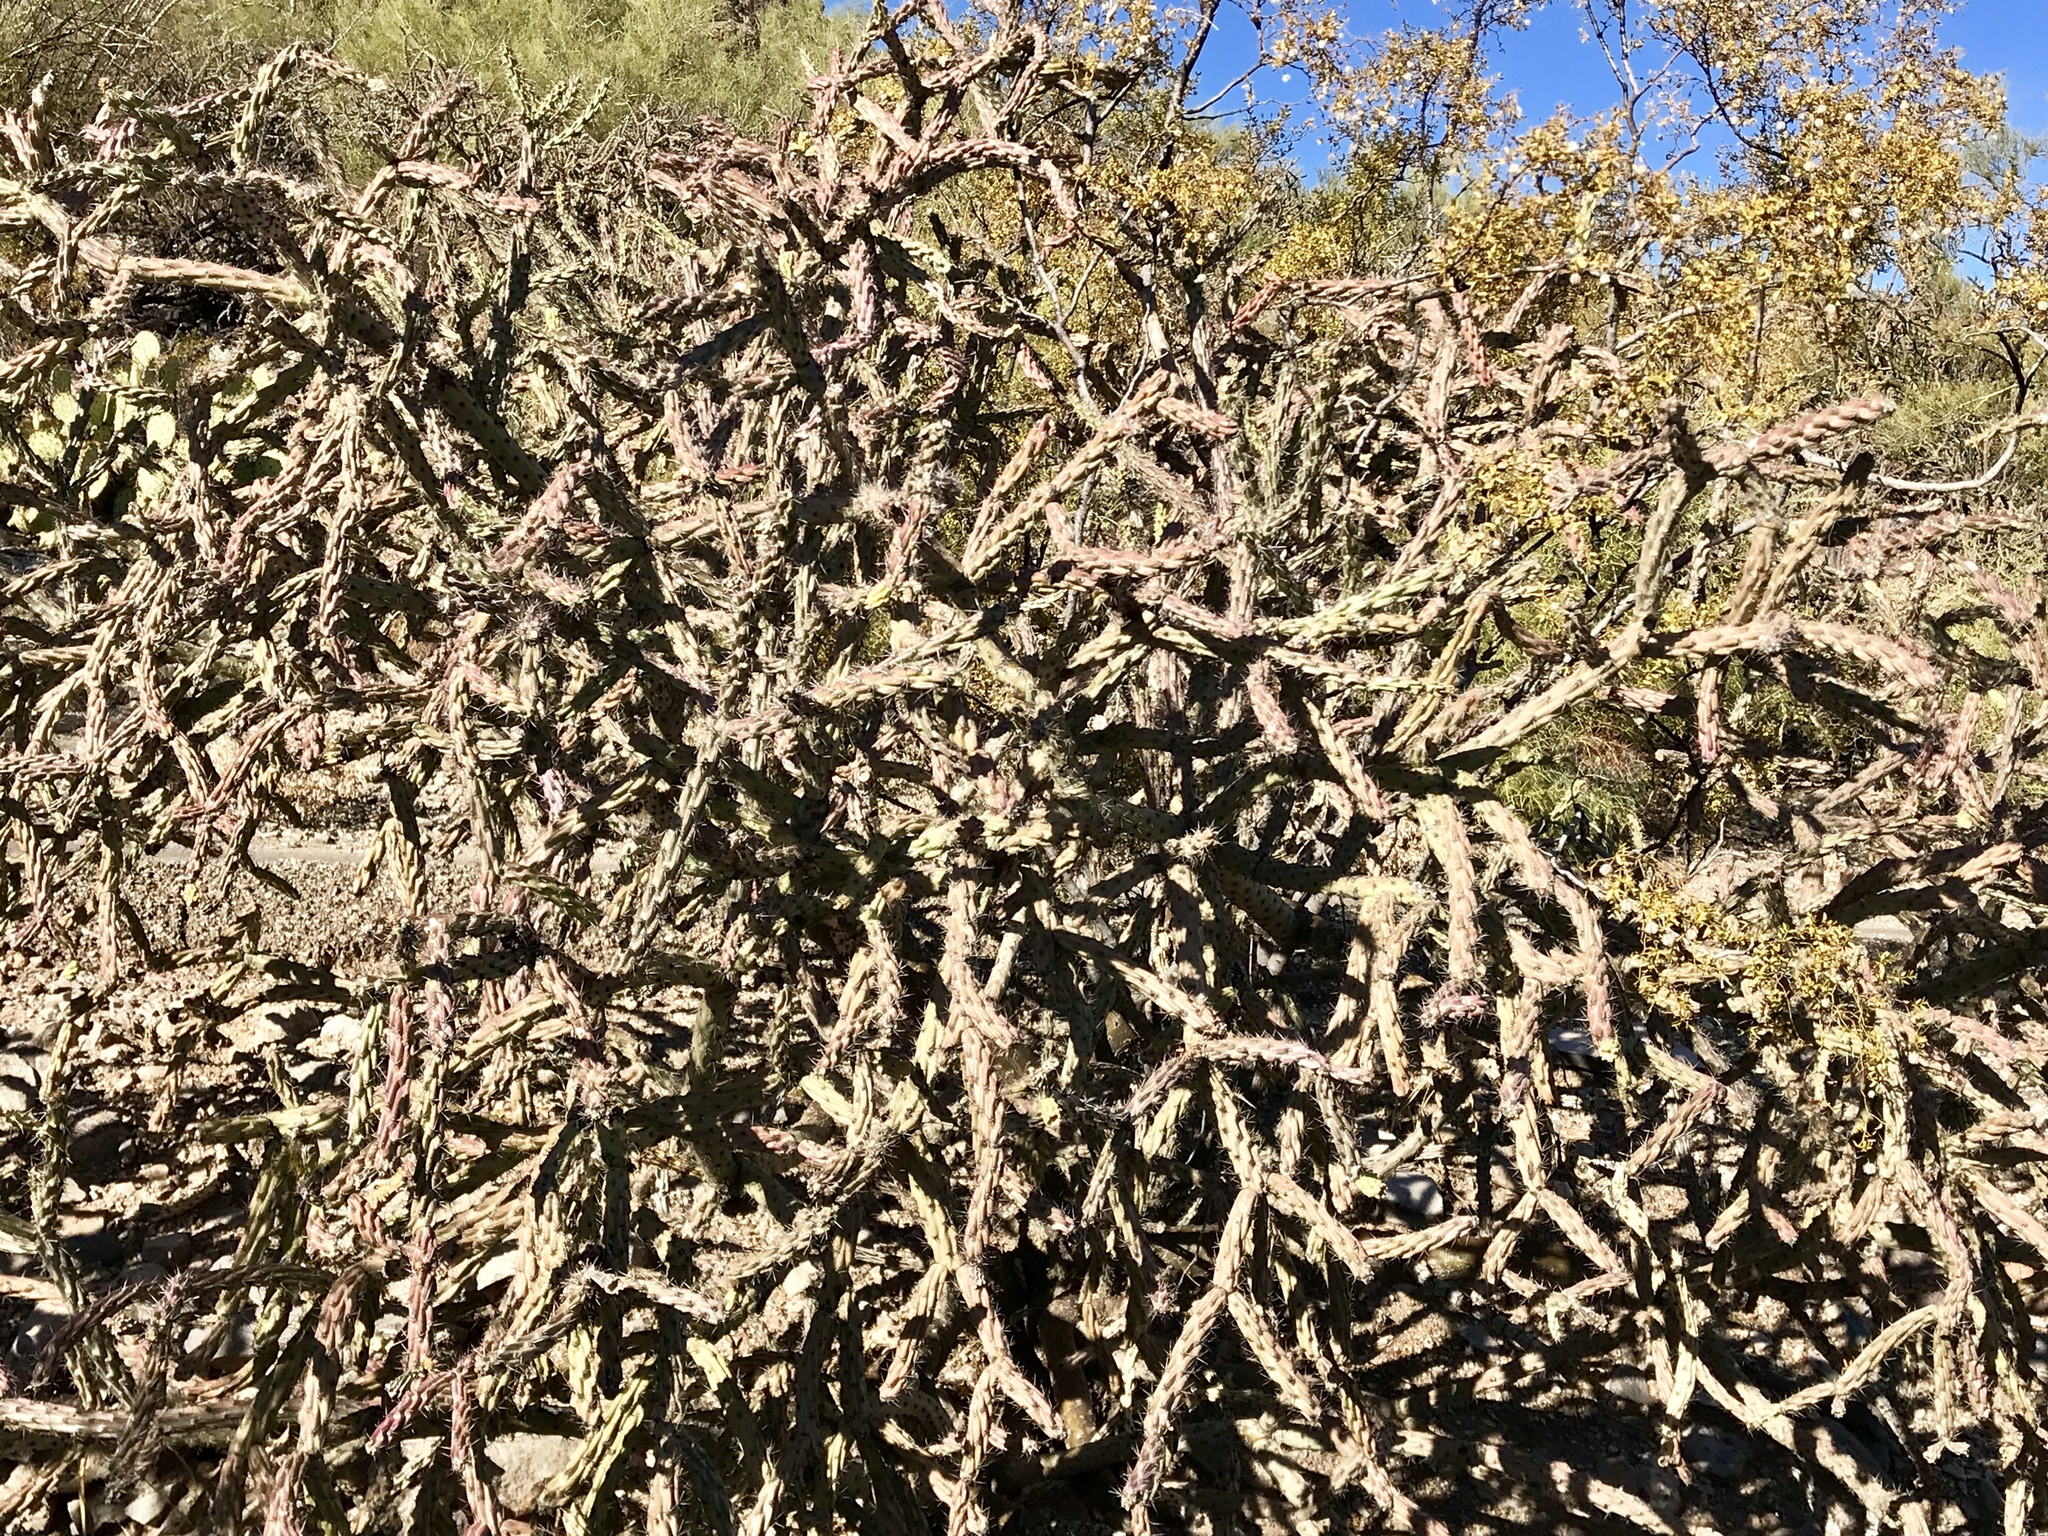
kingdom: Plantae
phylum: Tracheophyta
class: Magnoliopsida
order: Caryophyllales
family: Cactaceae
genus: Cylindropuntia
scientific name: Cylindropuntia thurberi
